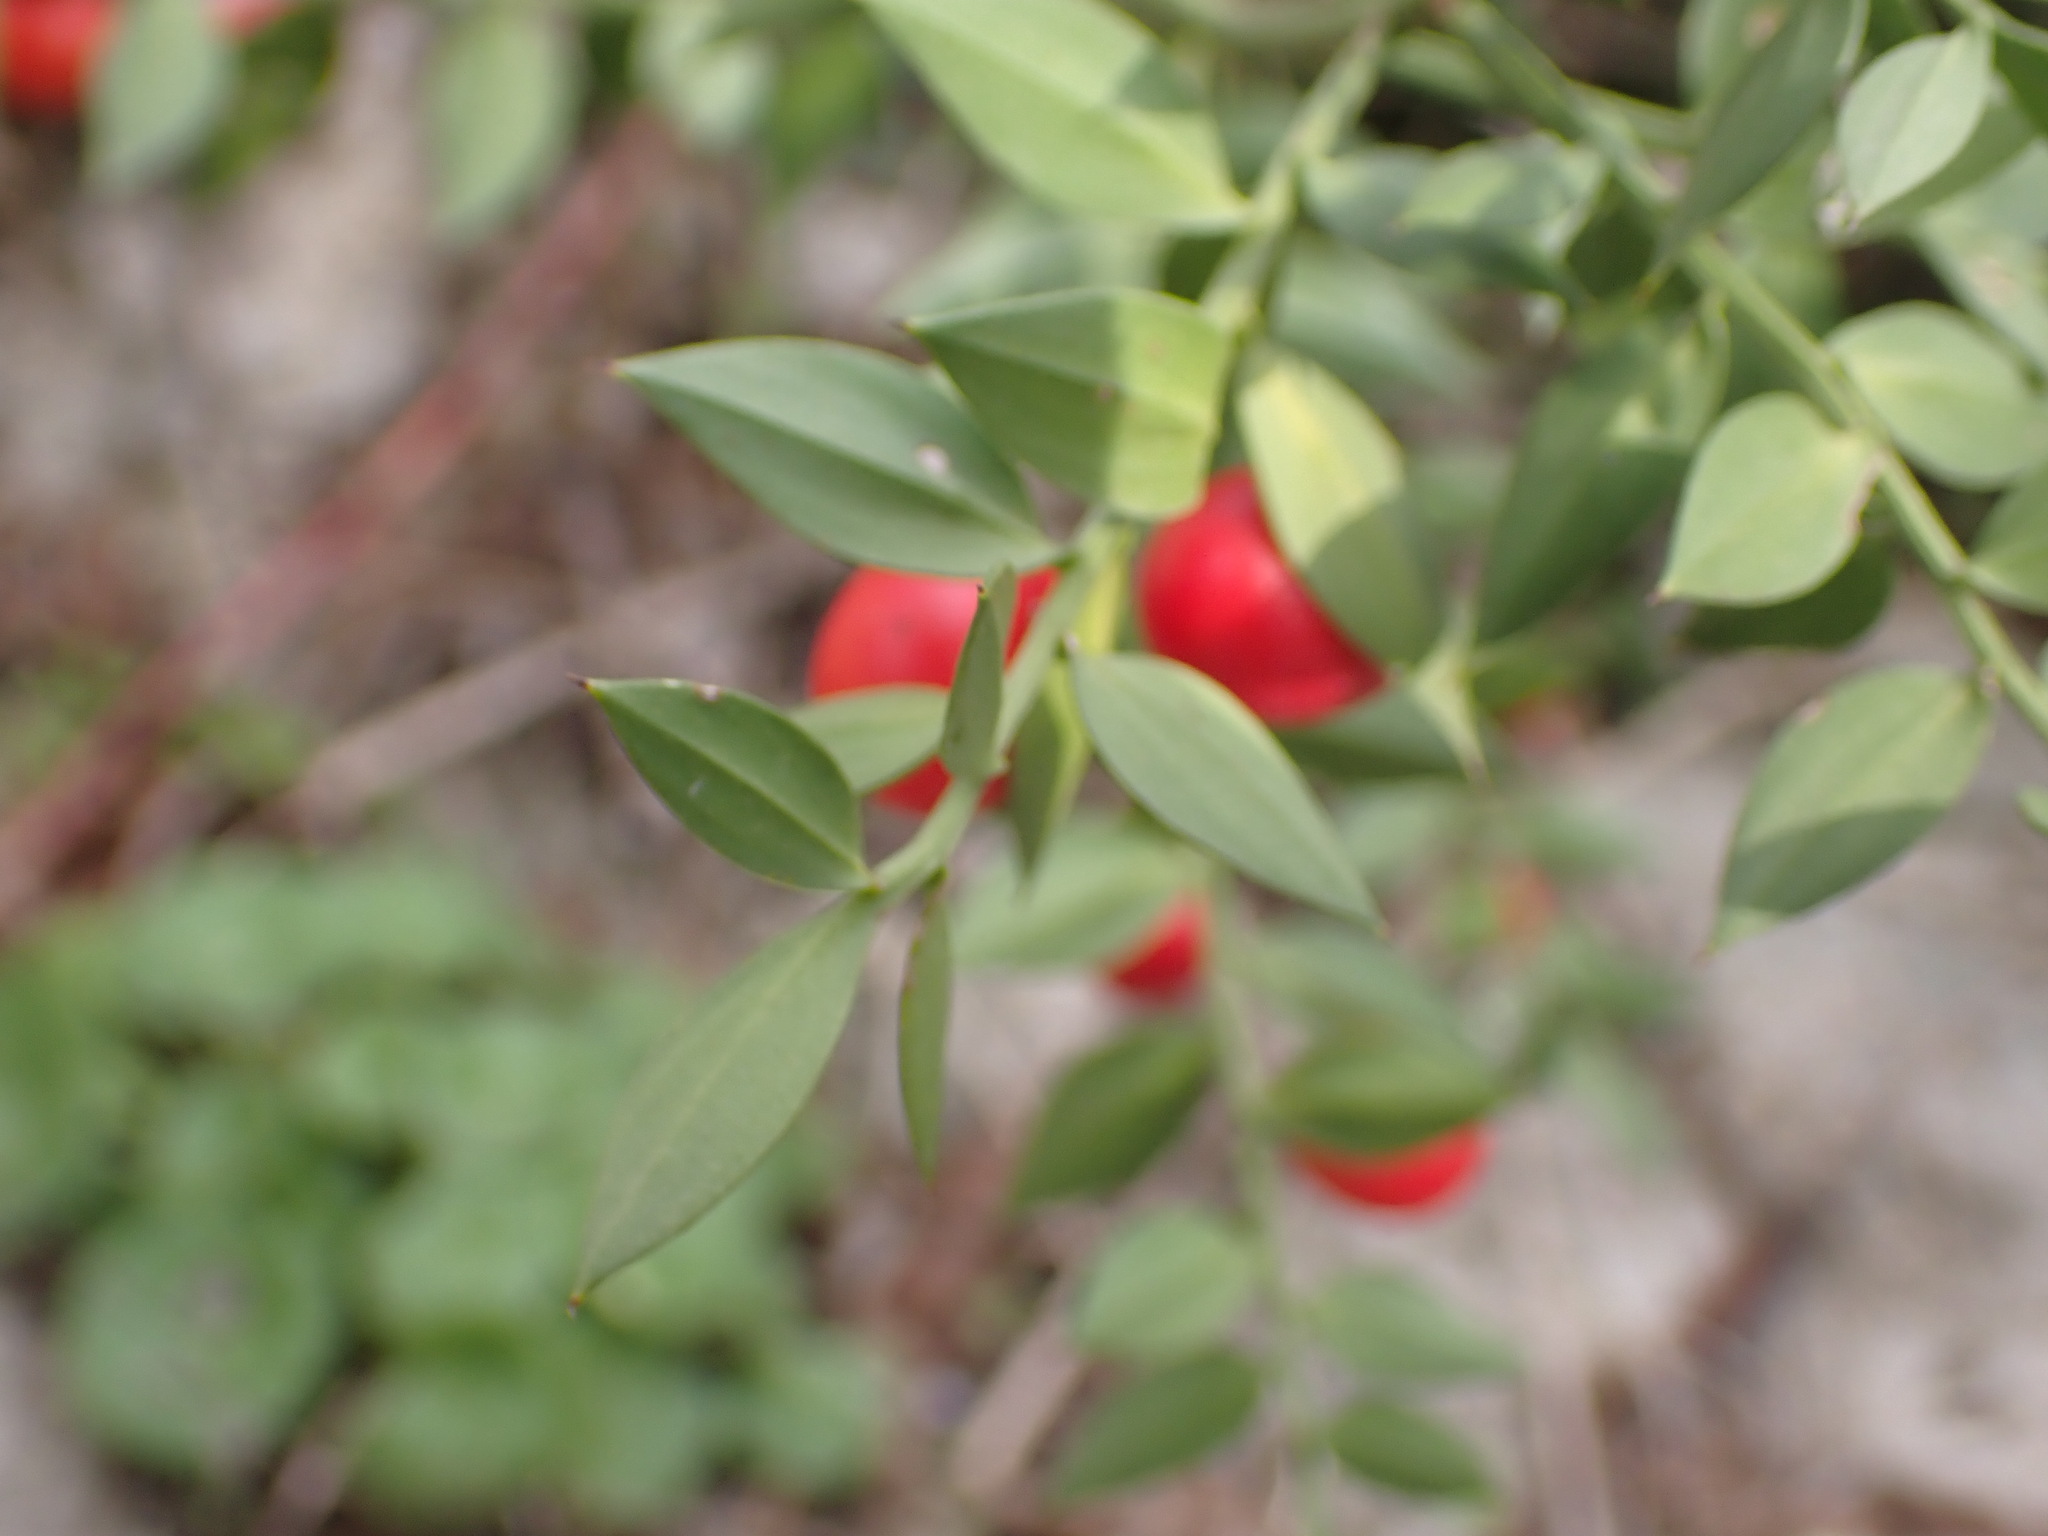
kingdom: Plantae
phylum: Tracheophyta
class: Liliopsida
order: Asparagales
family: Asparagaceae
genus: Ruscus
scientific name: Ruscus aculeatus
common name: Butcher's-broom
